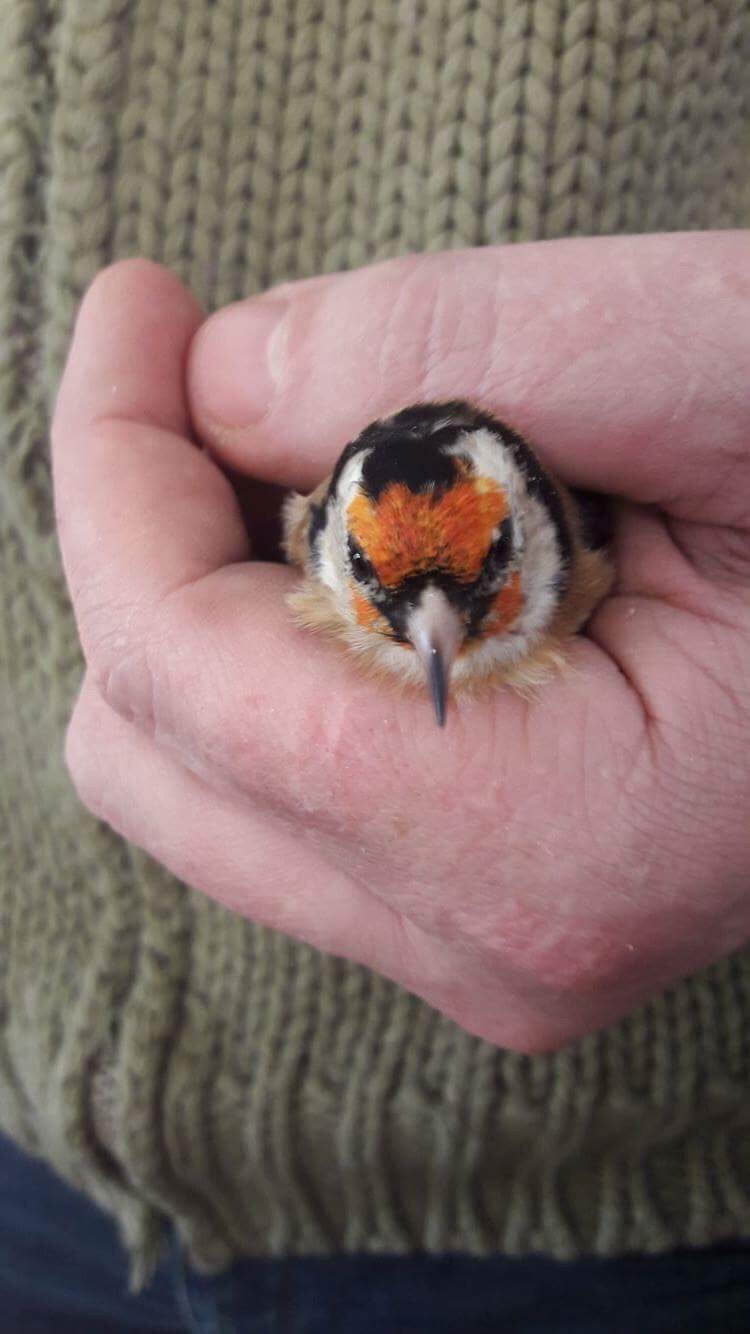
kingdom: Animalia
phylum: Chordata
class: Aves
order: Passeriformes
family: Fringillidae
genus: Carduelis
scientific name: Carduelis carduelis
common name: European goldfinch
